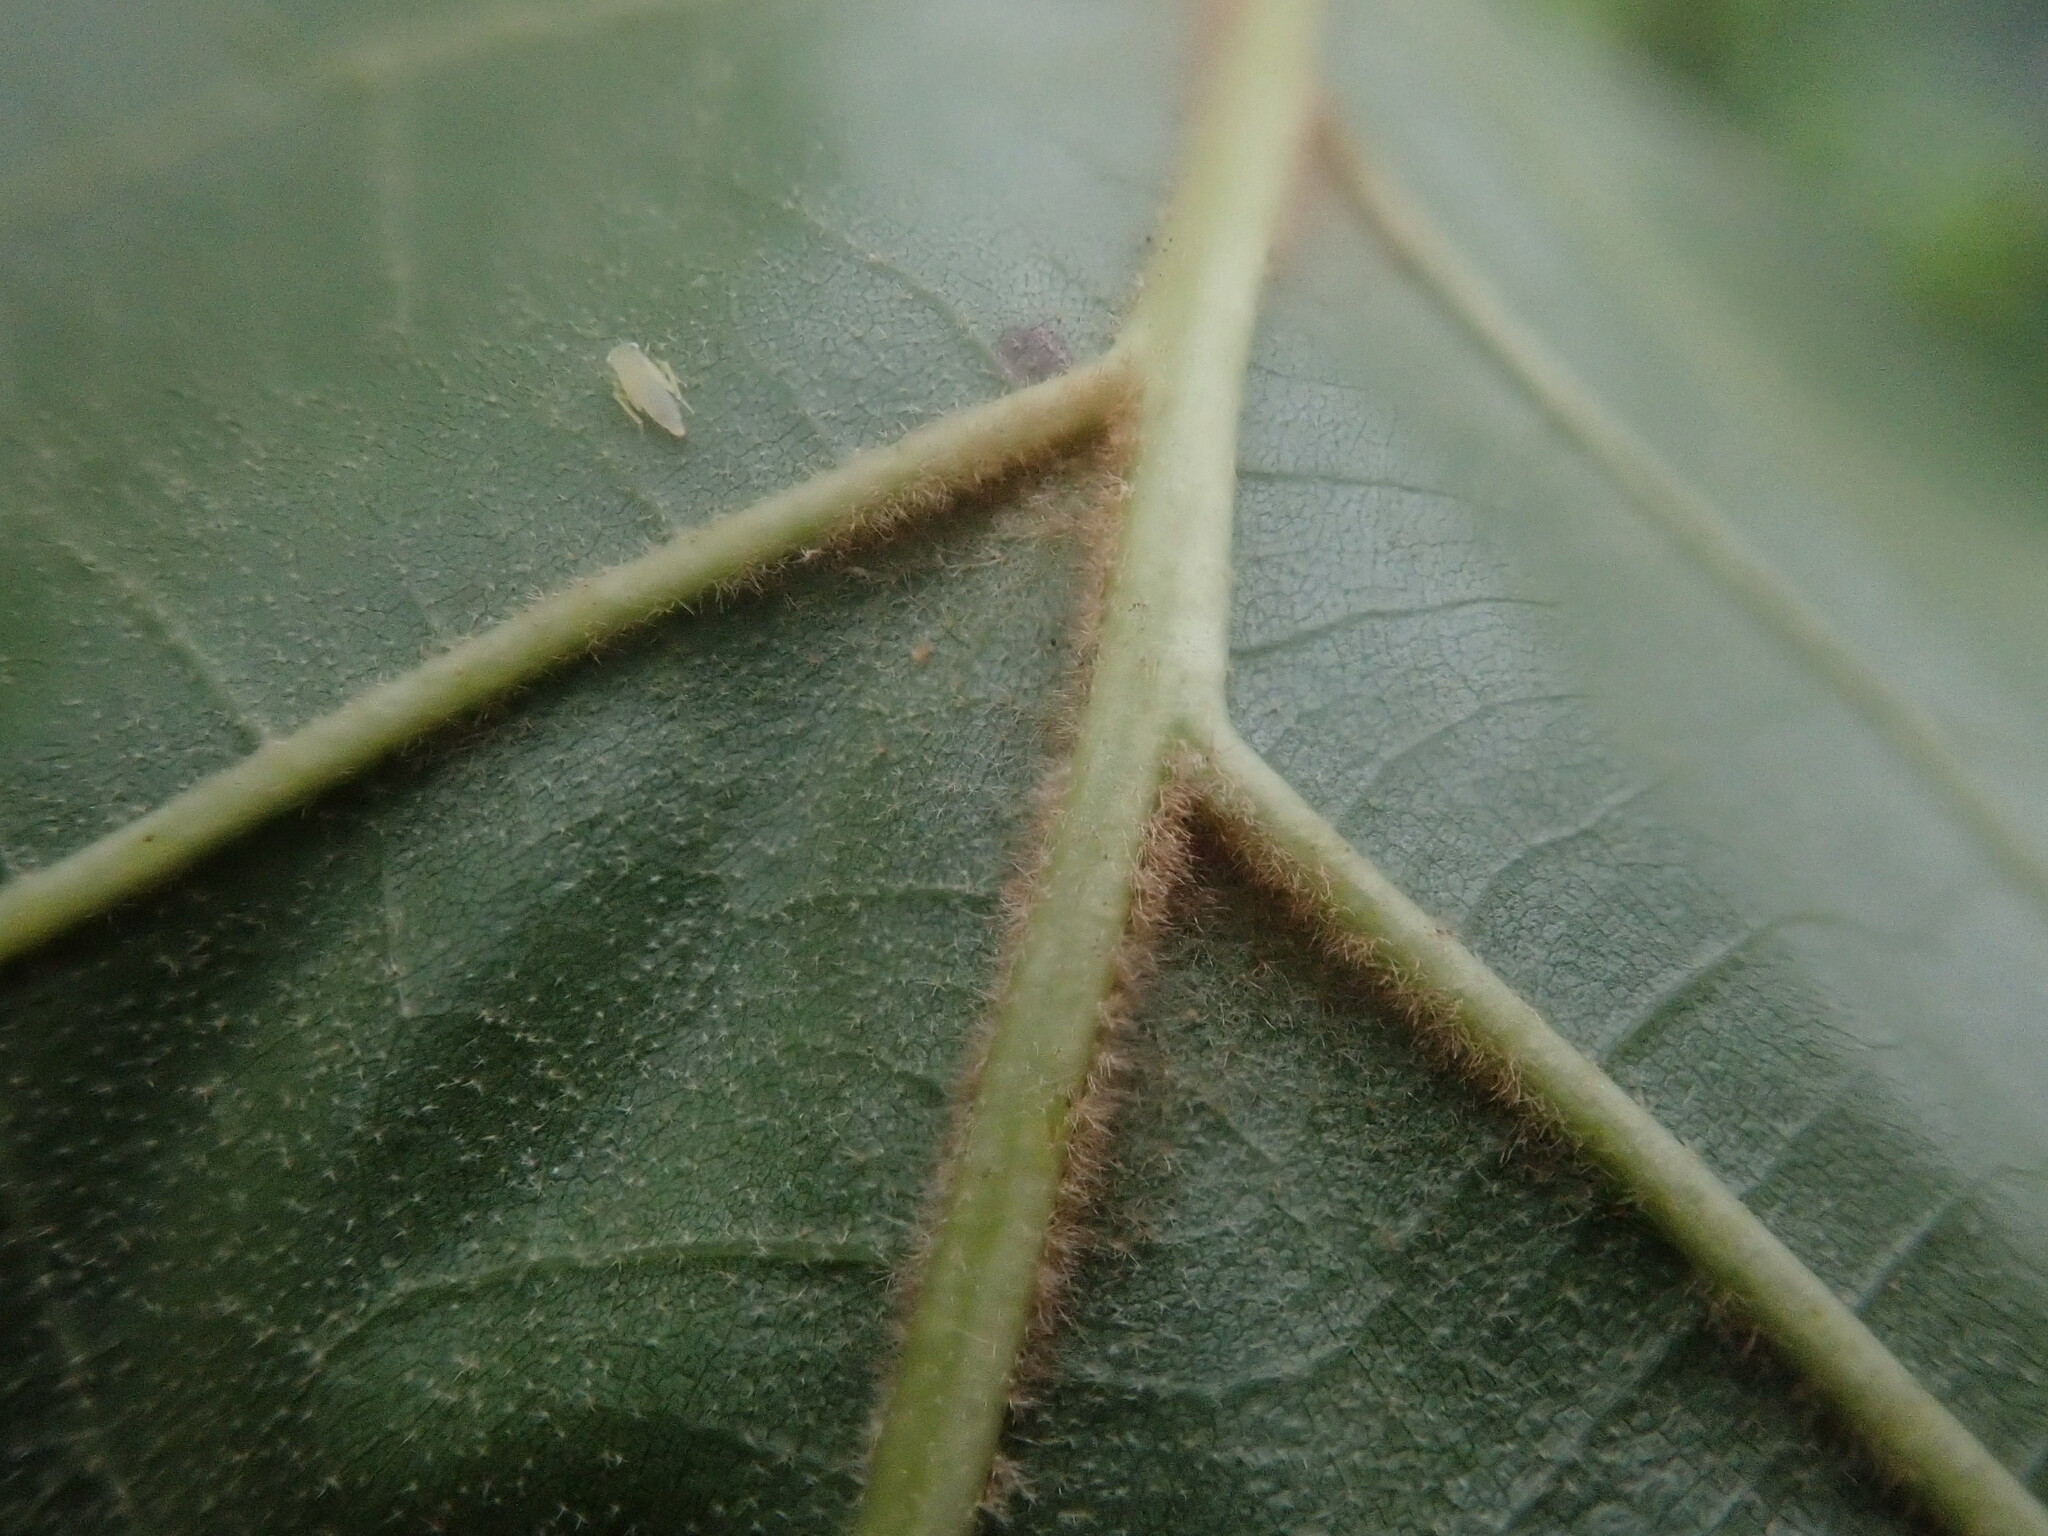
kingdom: Plantae
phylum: Tracheophyta
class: Magnoliopsida
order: Fagales
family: Fagaceae
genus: Quercus
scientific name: Quercus velutina
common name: Black oak
